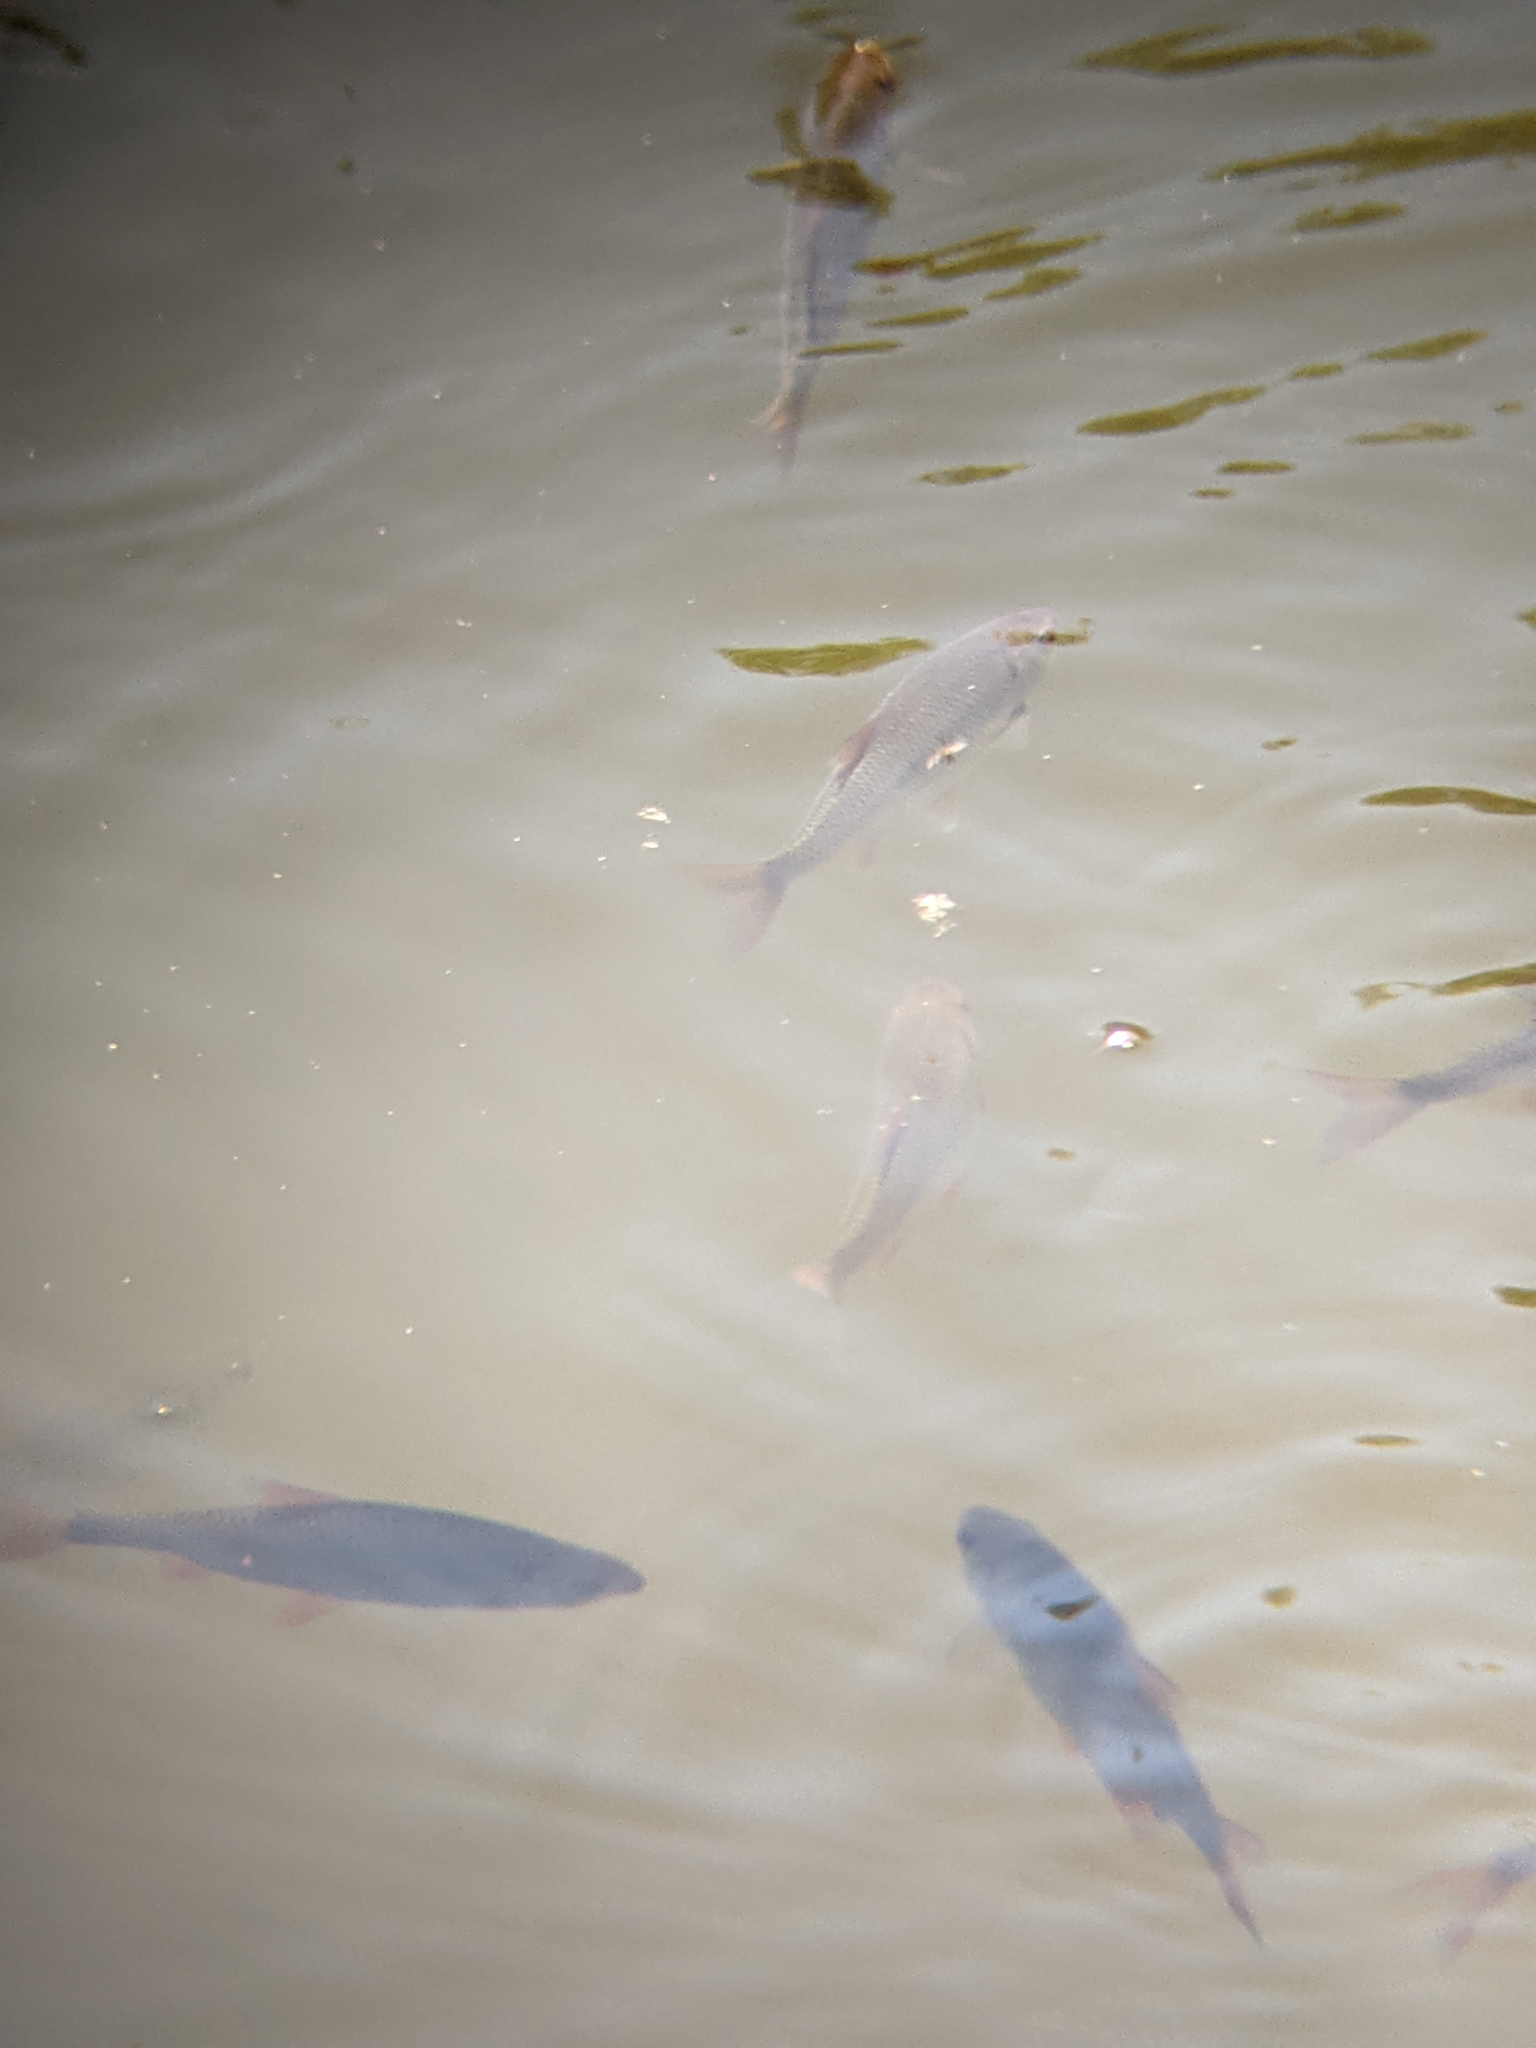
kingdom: Animalia
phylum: Chordata
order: Cypriniformes
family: Cyprinidae
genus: Scardinius
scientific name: Scardinius erythrophthalmus
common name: Rudd
